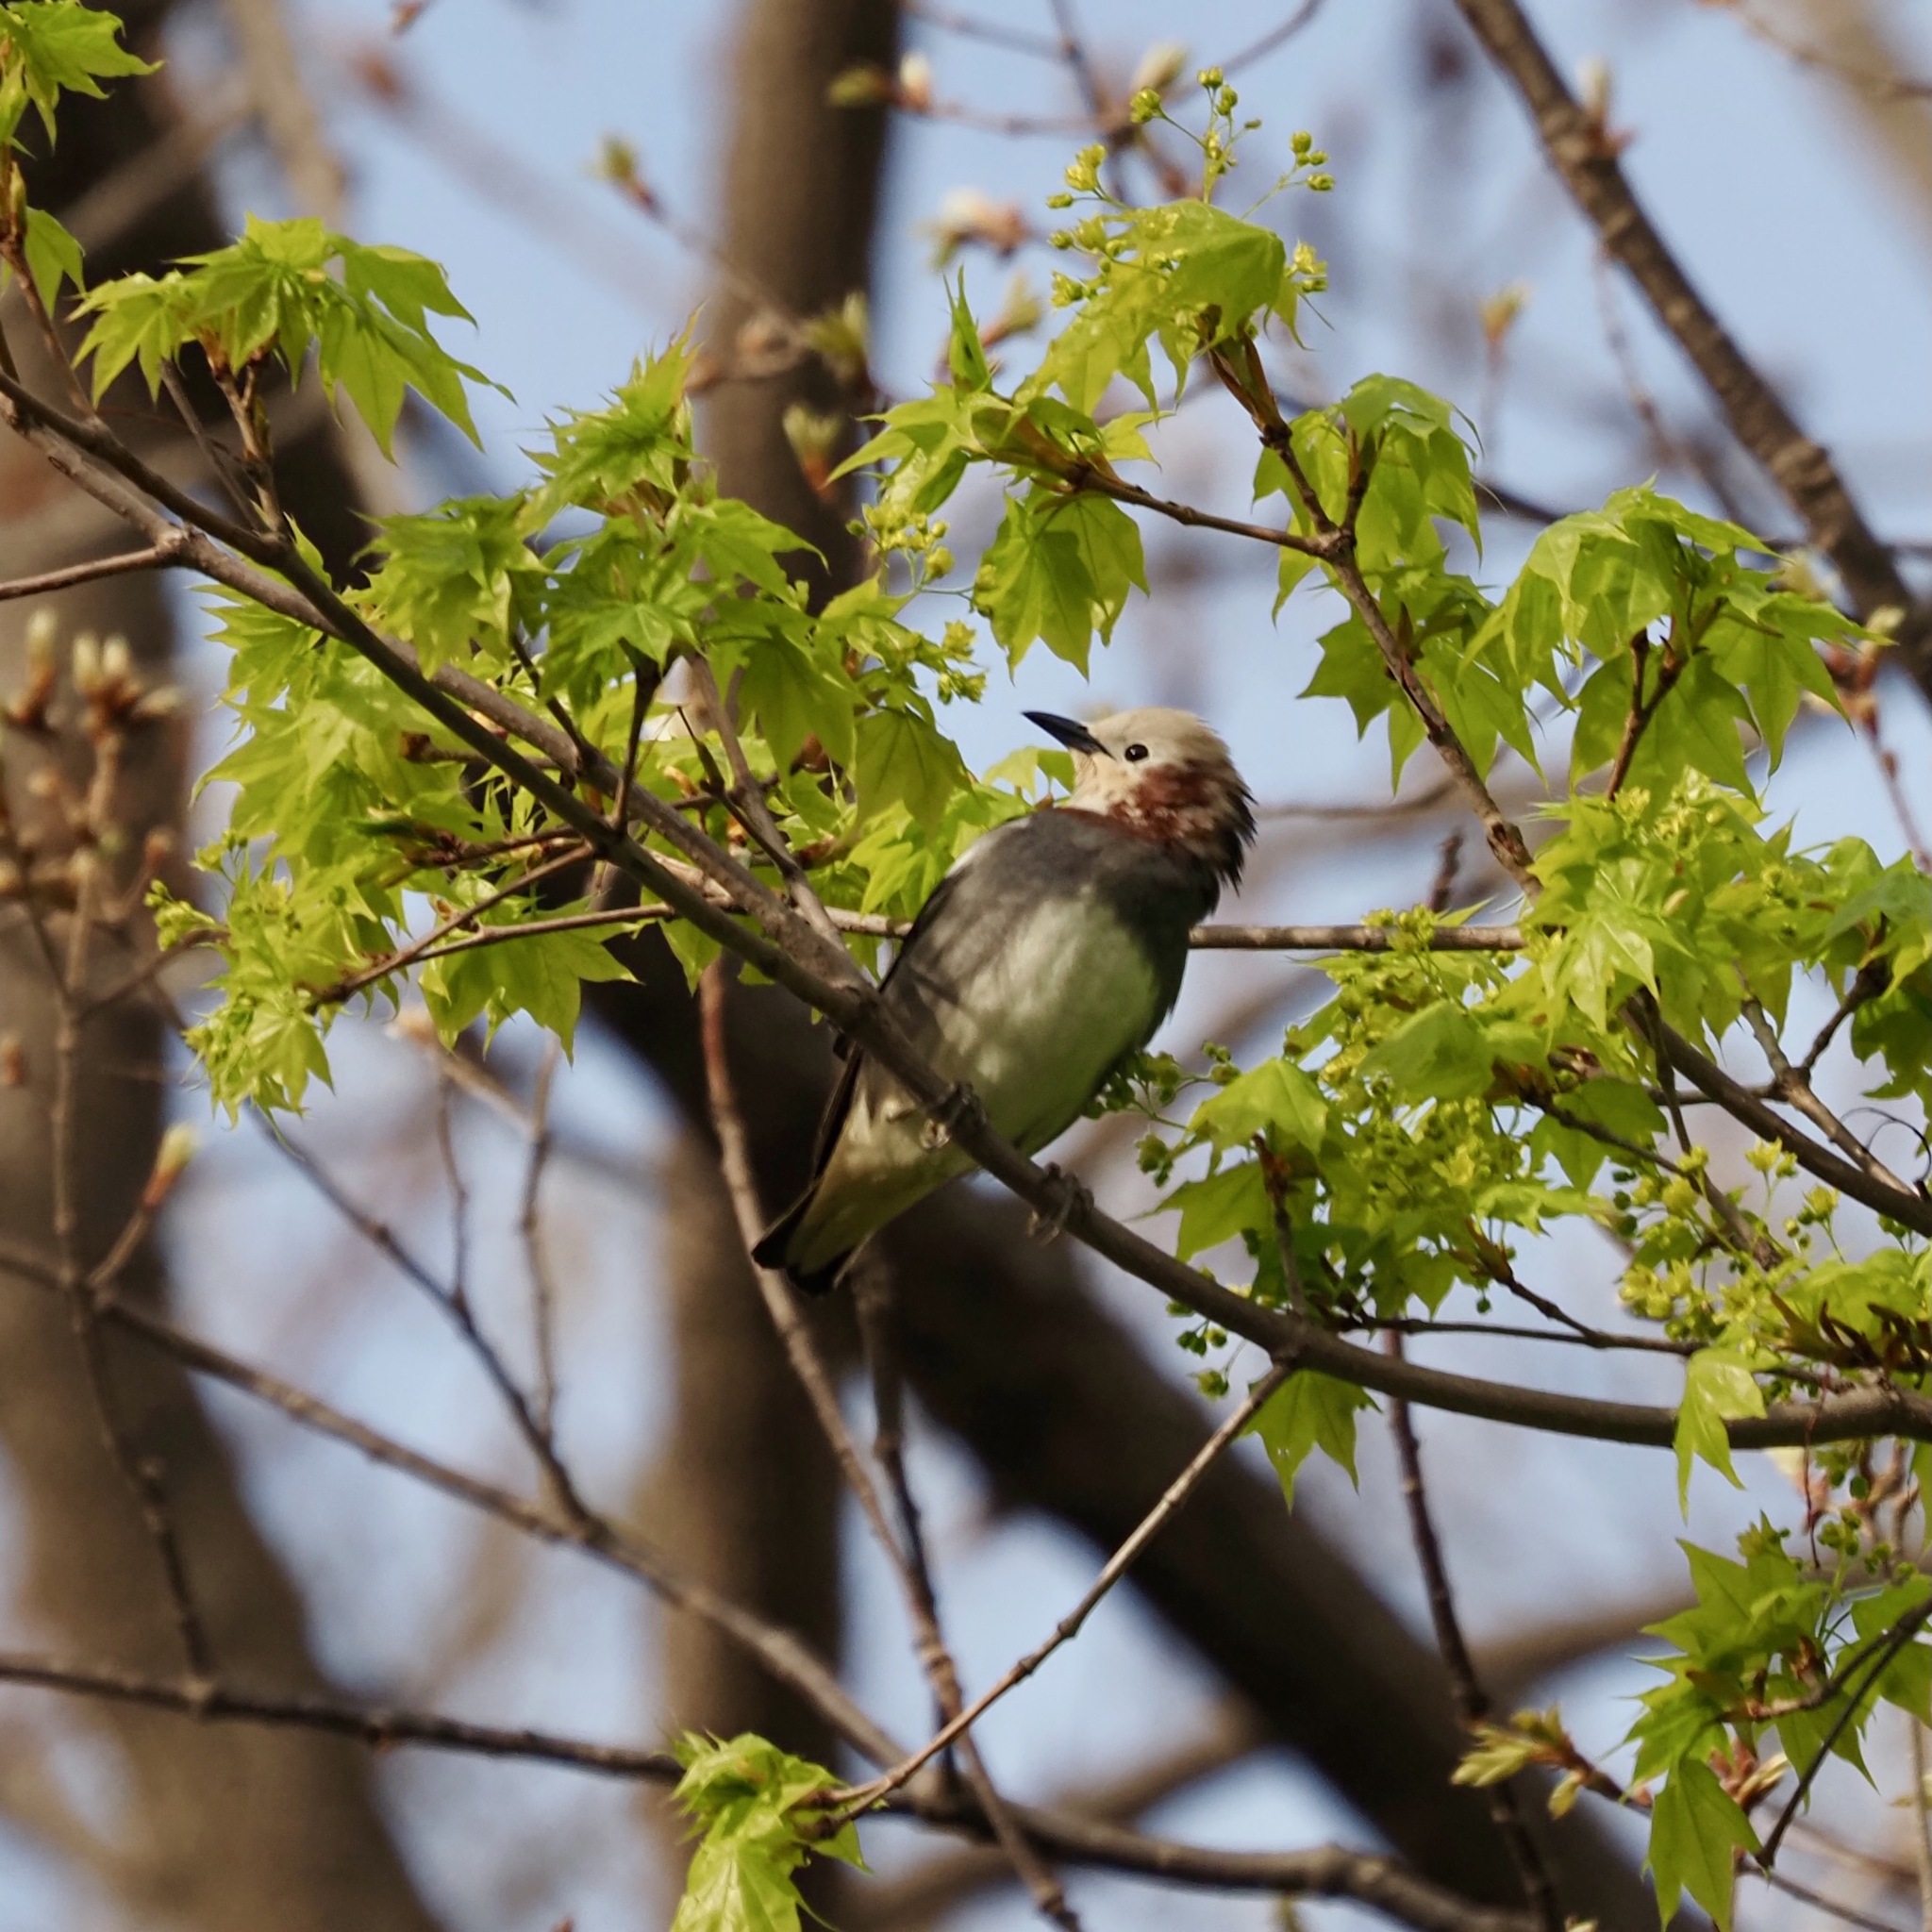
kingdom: Animalia
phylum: Chordata
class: Aves
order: Passeriformes
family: Sturnidae
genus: Agropsar
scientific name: Agropsar philippensis
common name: Chestnut-cheeked starling
